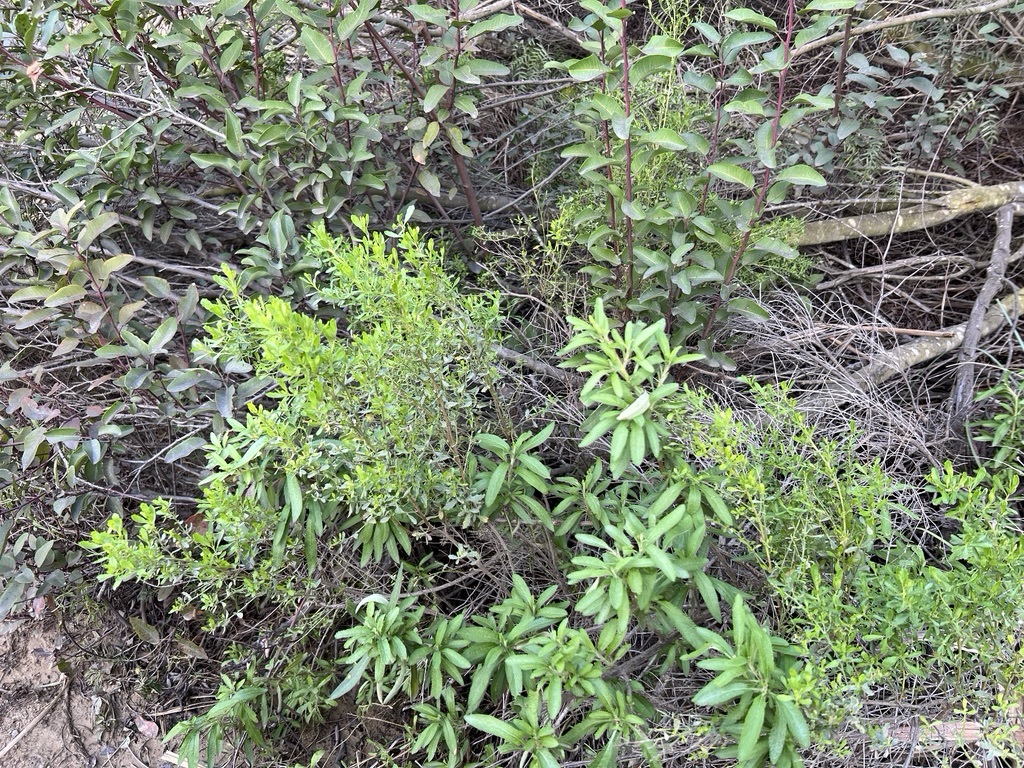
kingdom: Plantae
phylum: Tracheophyta
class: Magnoliopsida
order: Asterales
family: Asteraceae
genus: Baccharis
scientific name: Baccharis pilularis
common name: Coyotebrush
